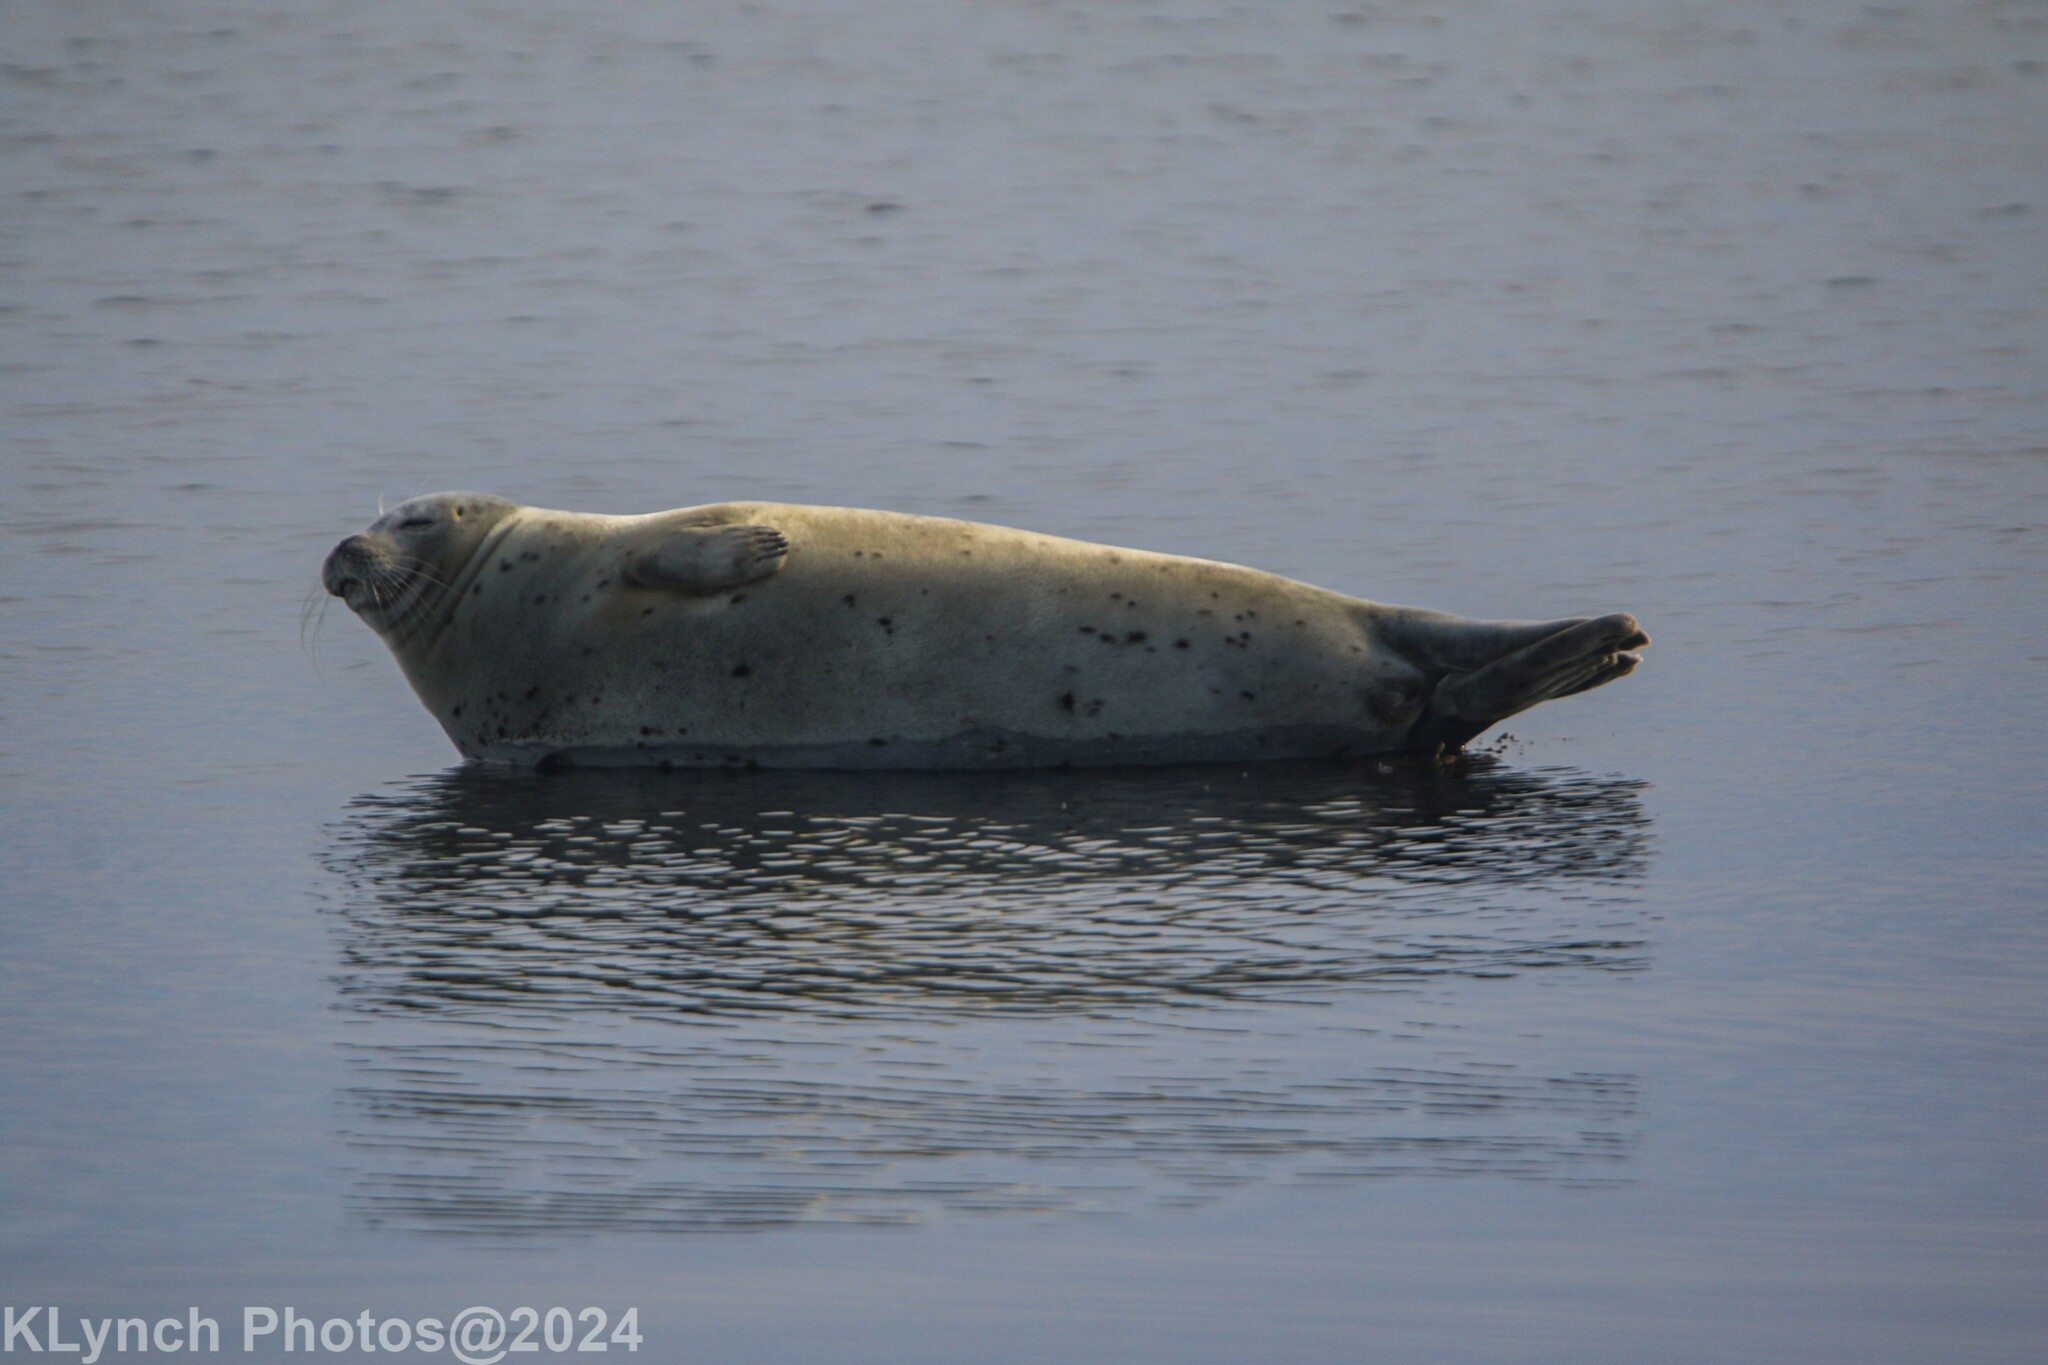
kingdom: Animalia
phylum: Chordata
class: Mammalia
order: Carnivora
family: Phocidae
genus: Phoca
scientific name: Phoca vitulina
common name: Harbor seal
